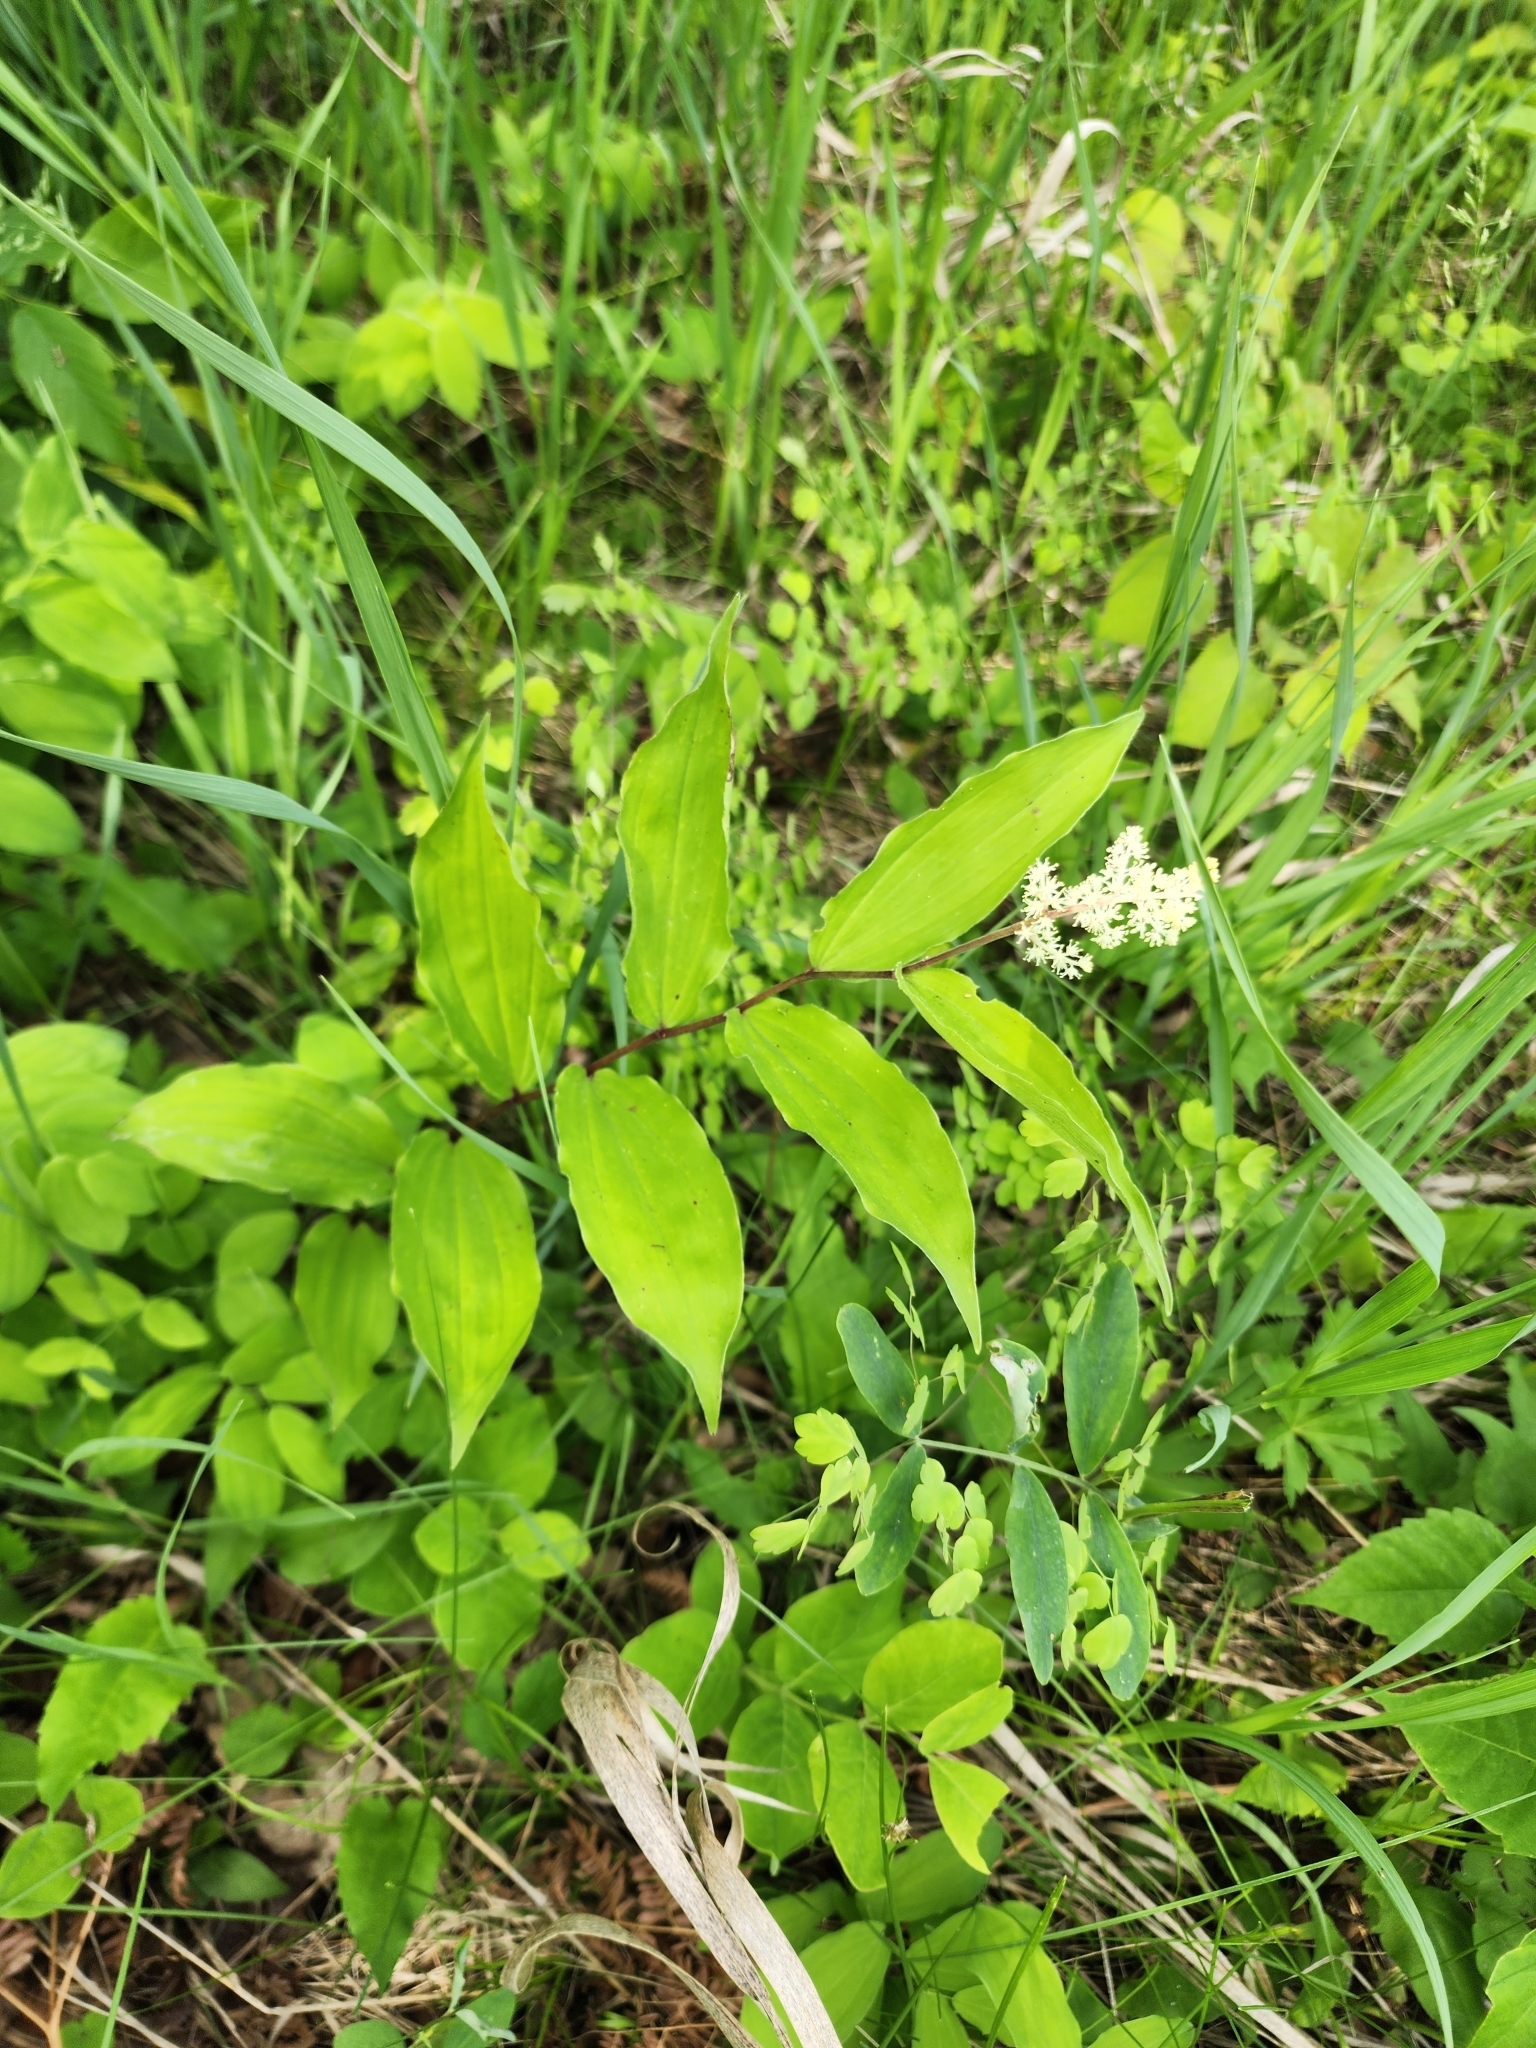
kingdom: Plantae
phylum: Tracheophyta
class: Liliopsida
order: Asparagales
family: Asparagaceae
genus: Maianthemum
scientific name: Maianthemum racemosum
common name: False spikenard
